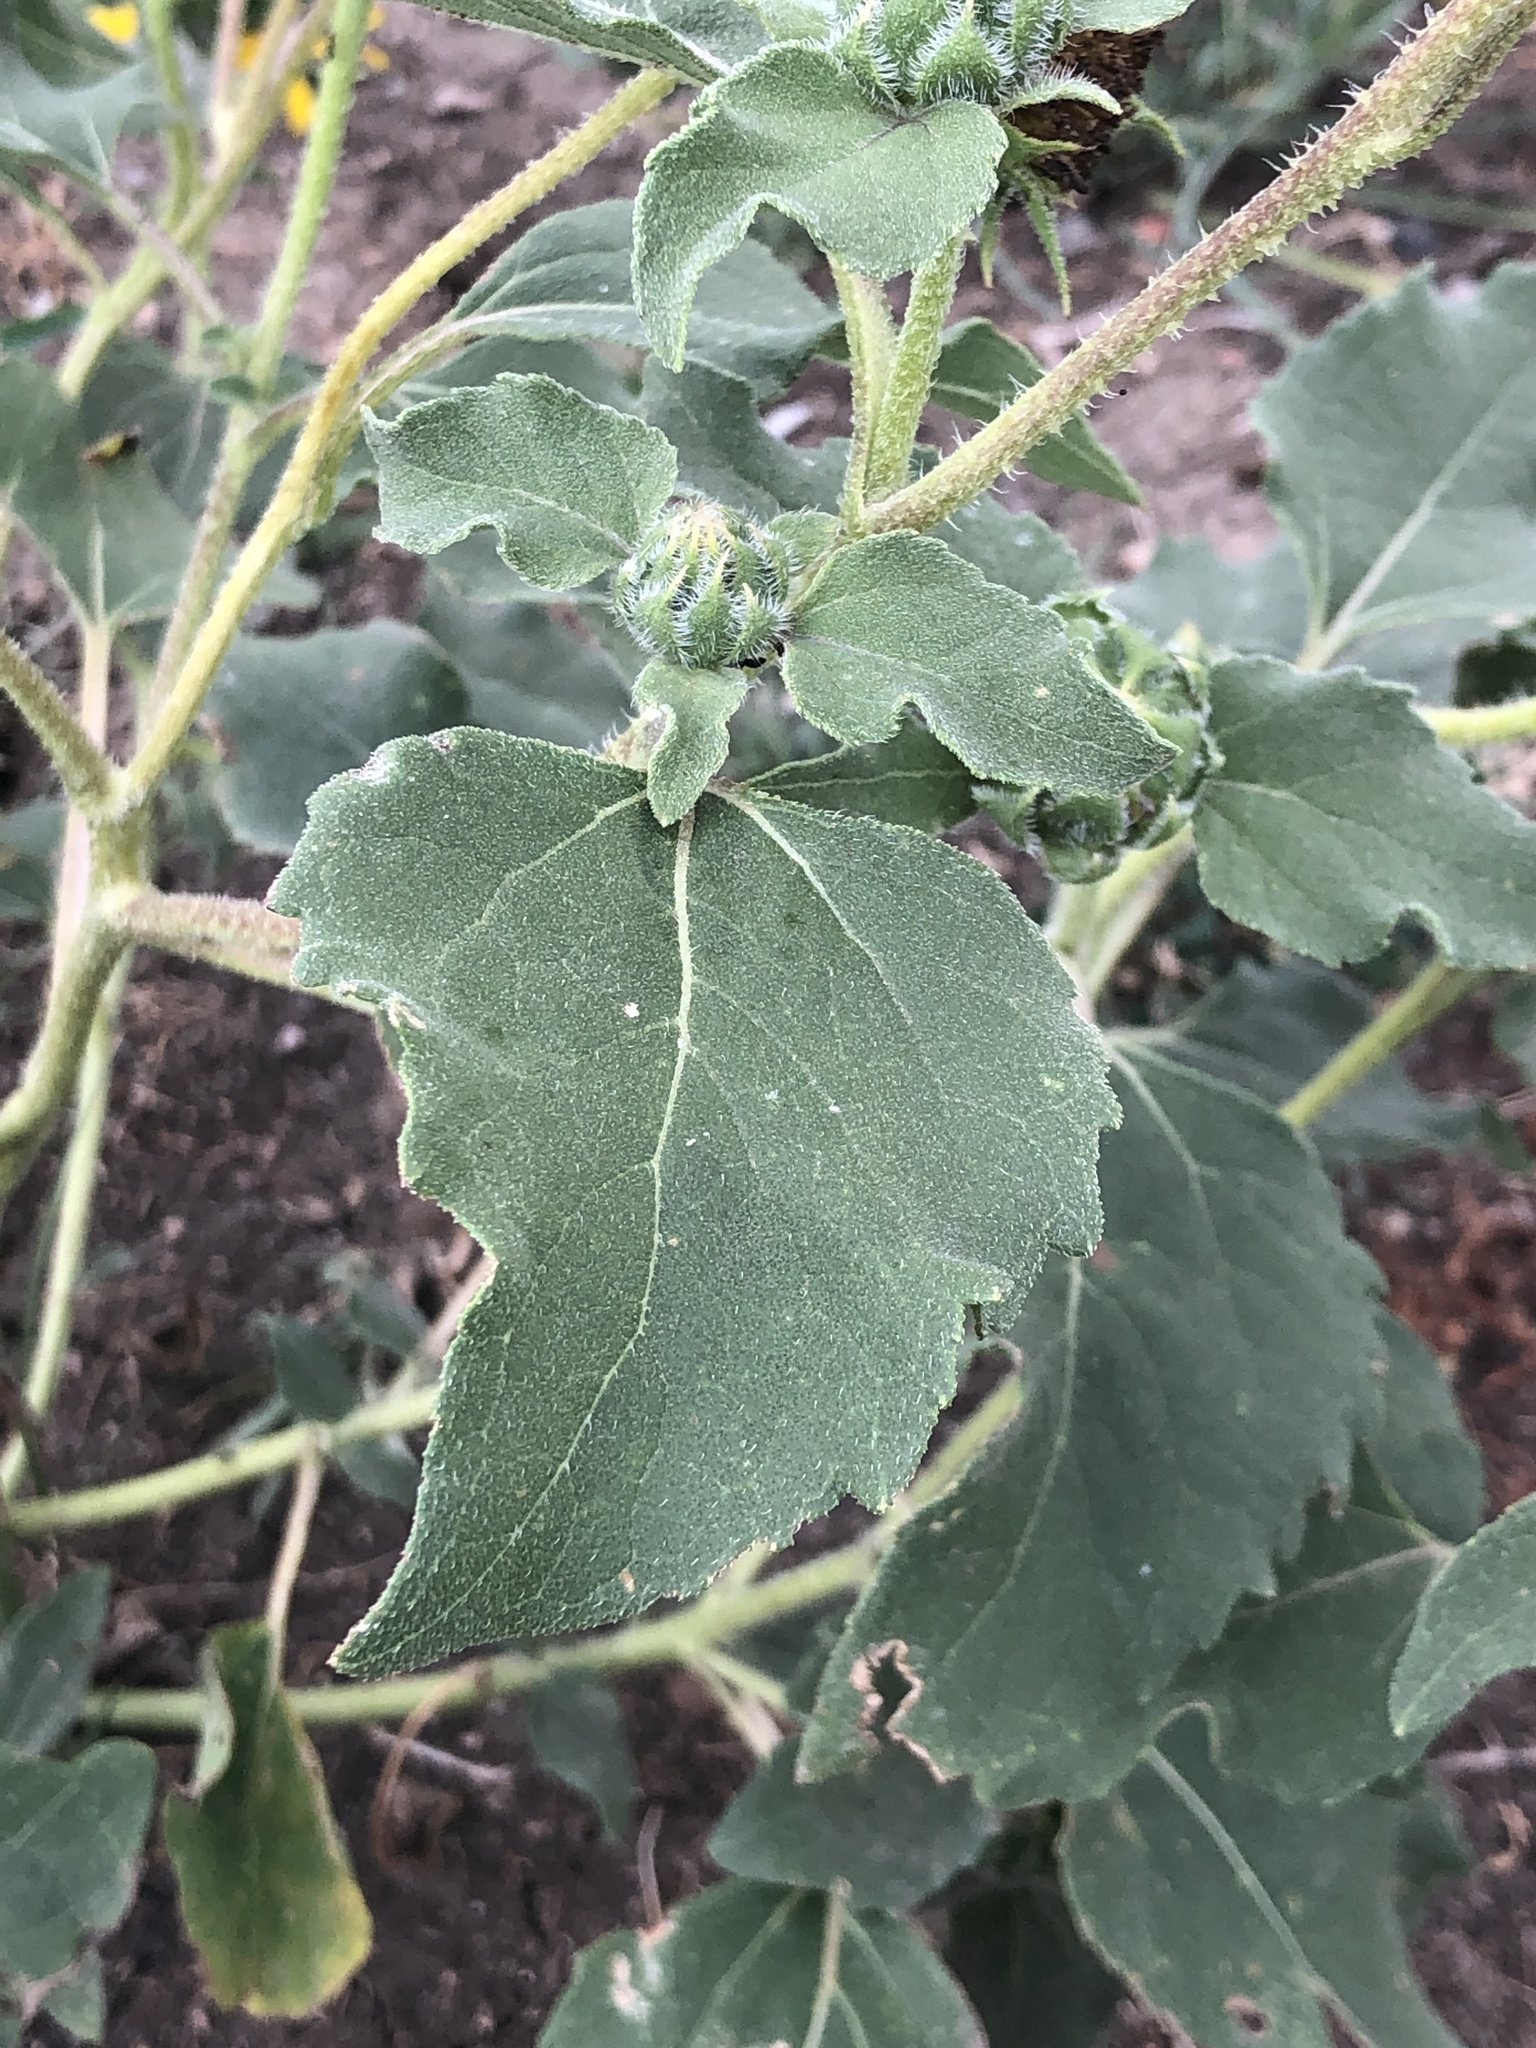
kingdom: Plantae
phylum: Tracheophyta
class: Magnoliopsida
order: Asterales
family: Asteraceae
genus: Helianthus
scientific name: Helianthus annuus
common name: Sunflower
